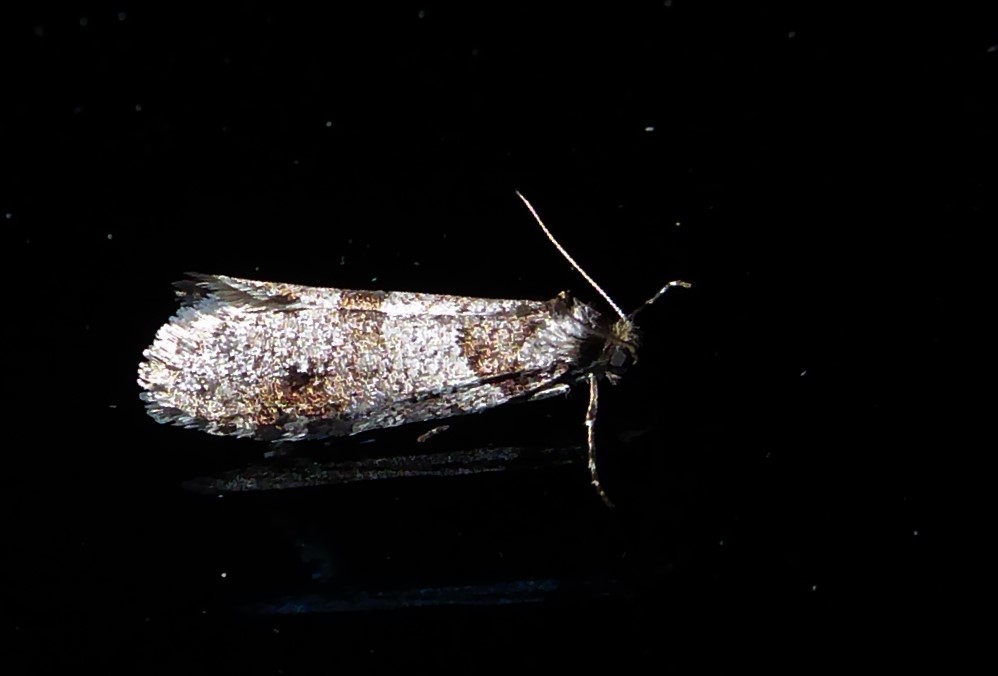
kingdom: Animalia
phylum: Arthropoda
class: Insecta
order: Lepidoptera
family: Psychidae
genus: Lepidoscia
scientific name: Lepidoscia heliochares
